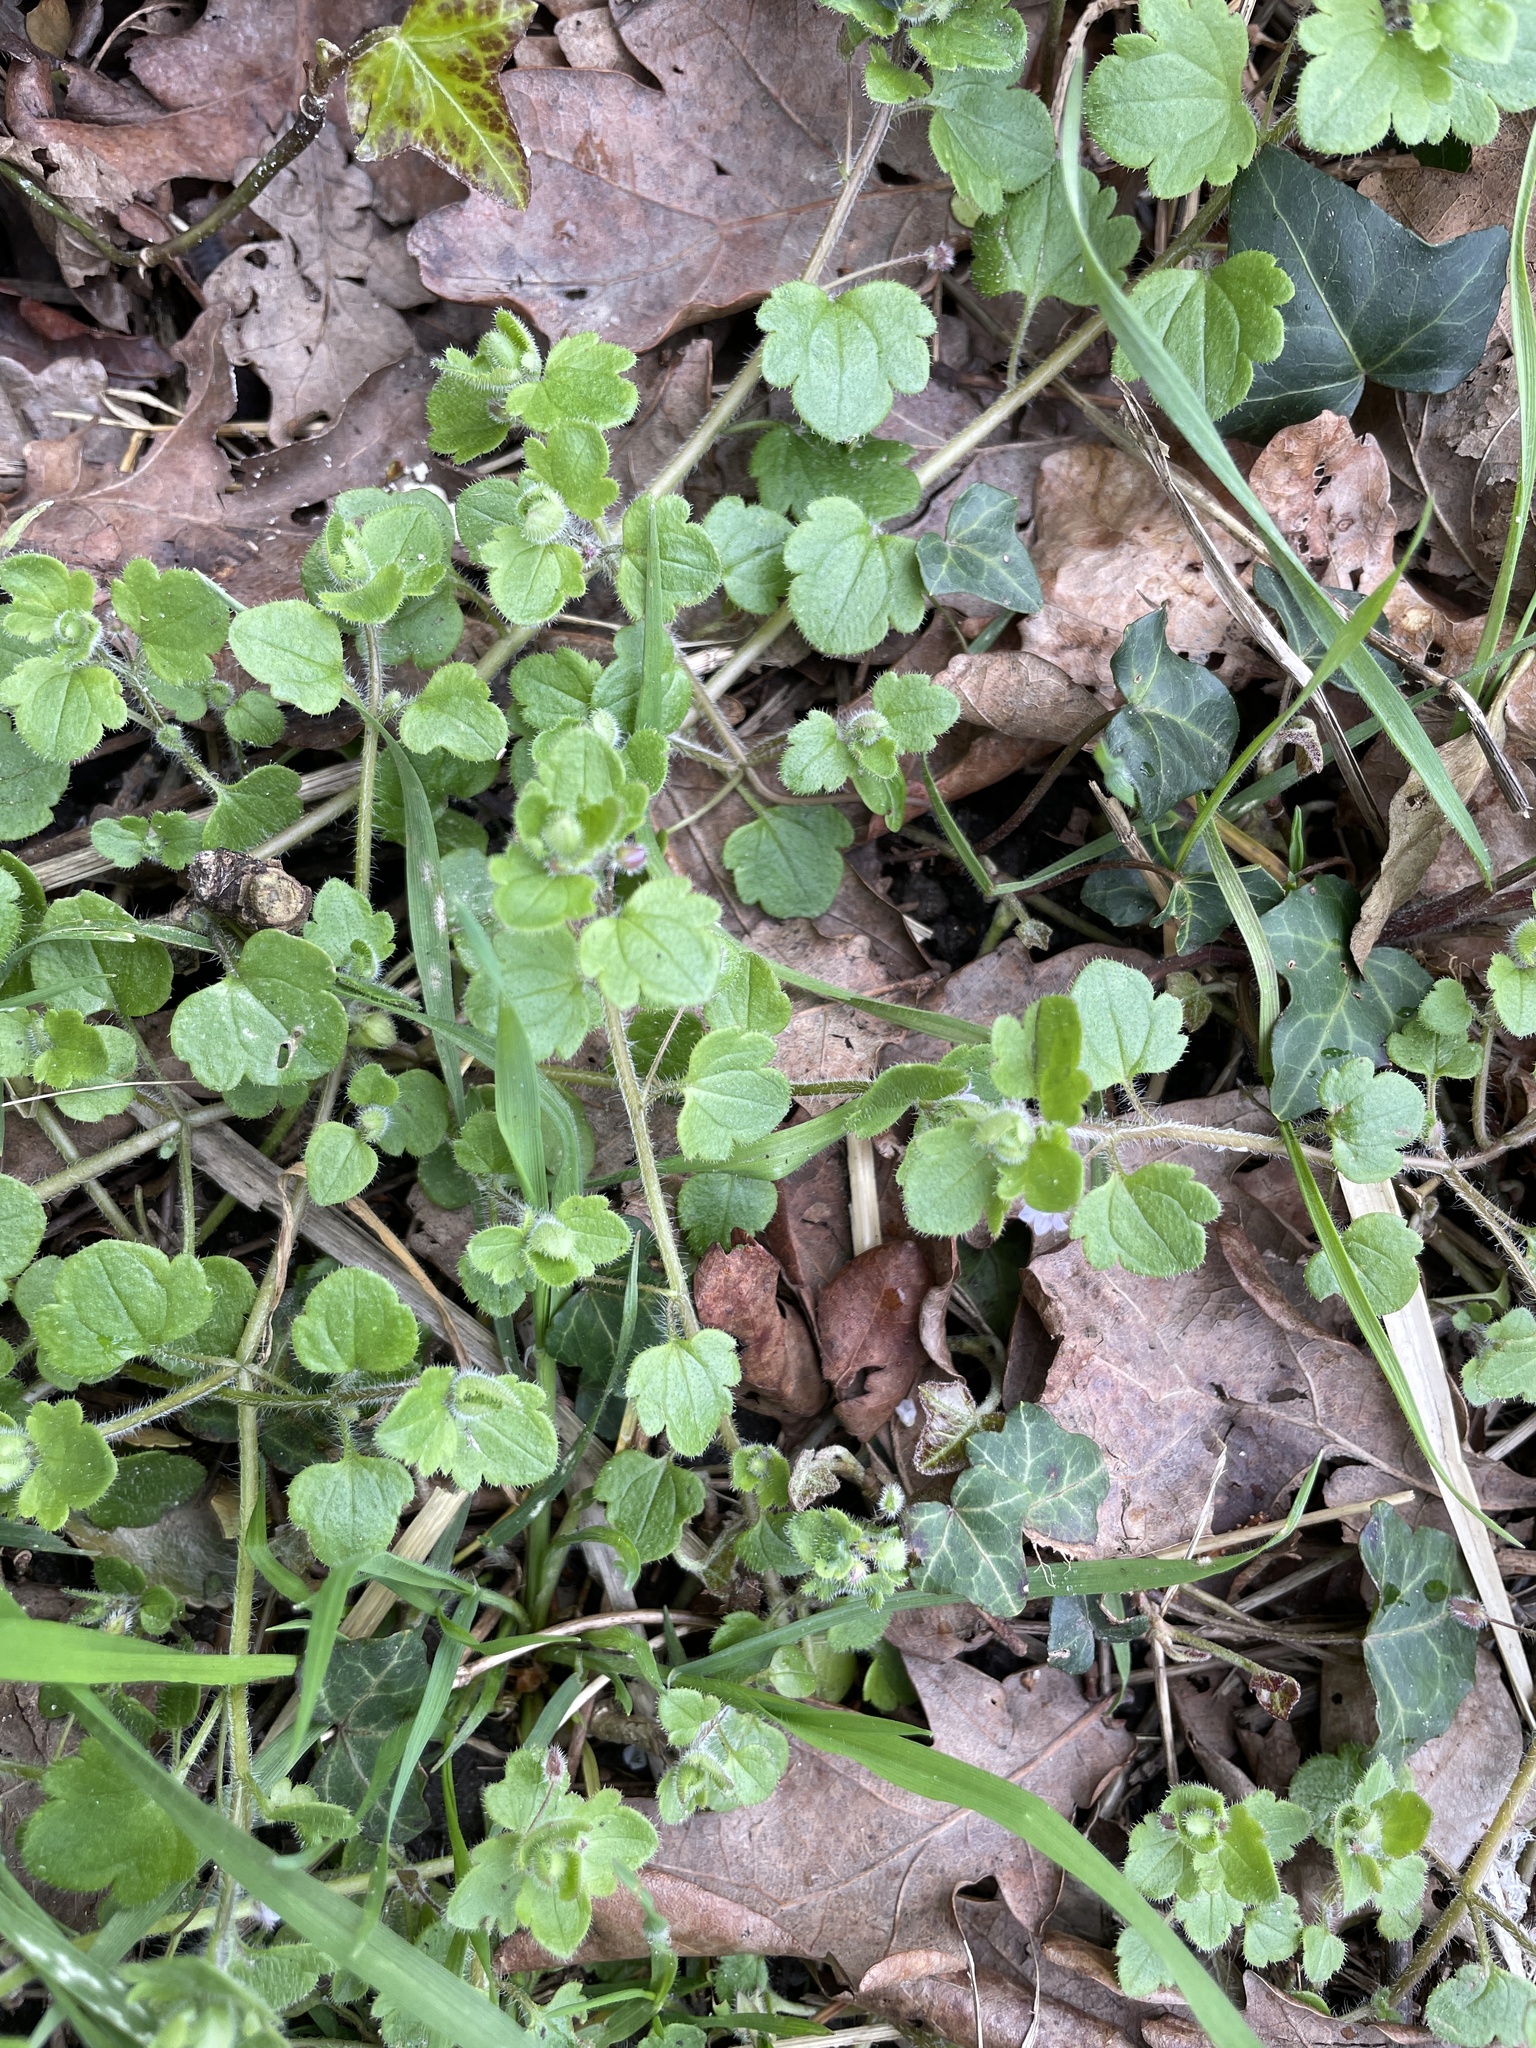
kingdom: Plantae
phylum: Tracheophyta
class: Magnoliopsida
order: Lamiales
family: Plantaginaceae
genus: Veronica
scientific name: Veronica sublobata
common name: False ivy-leaved speedwell
